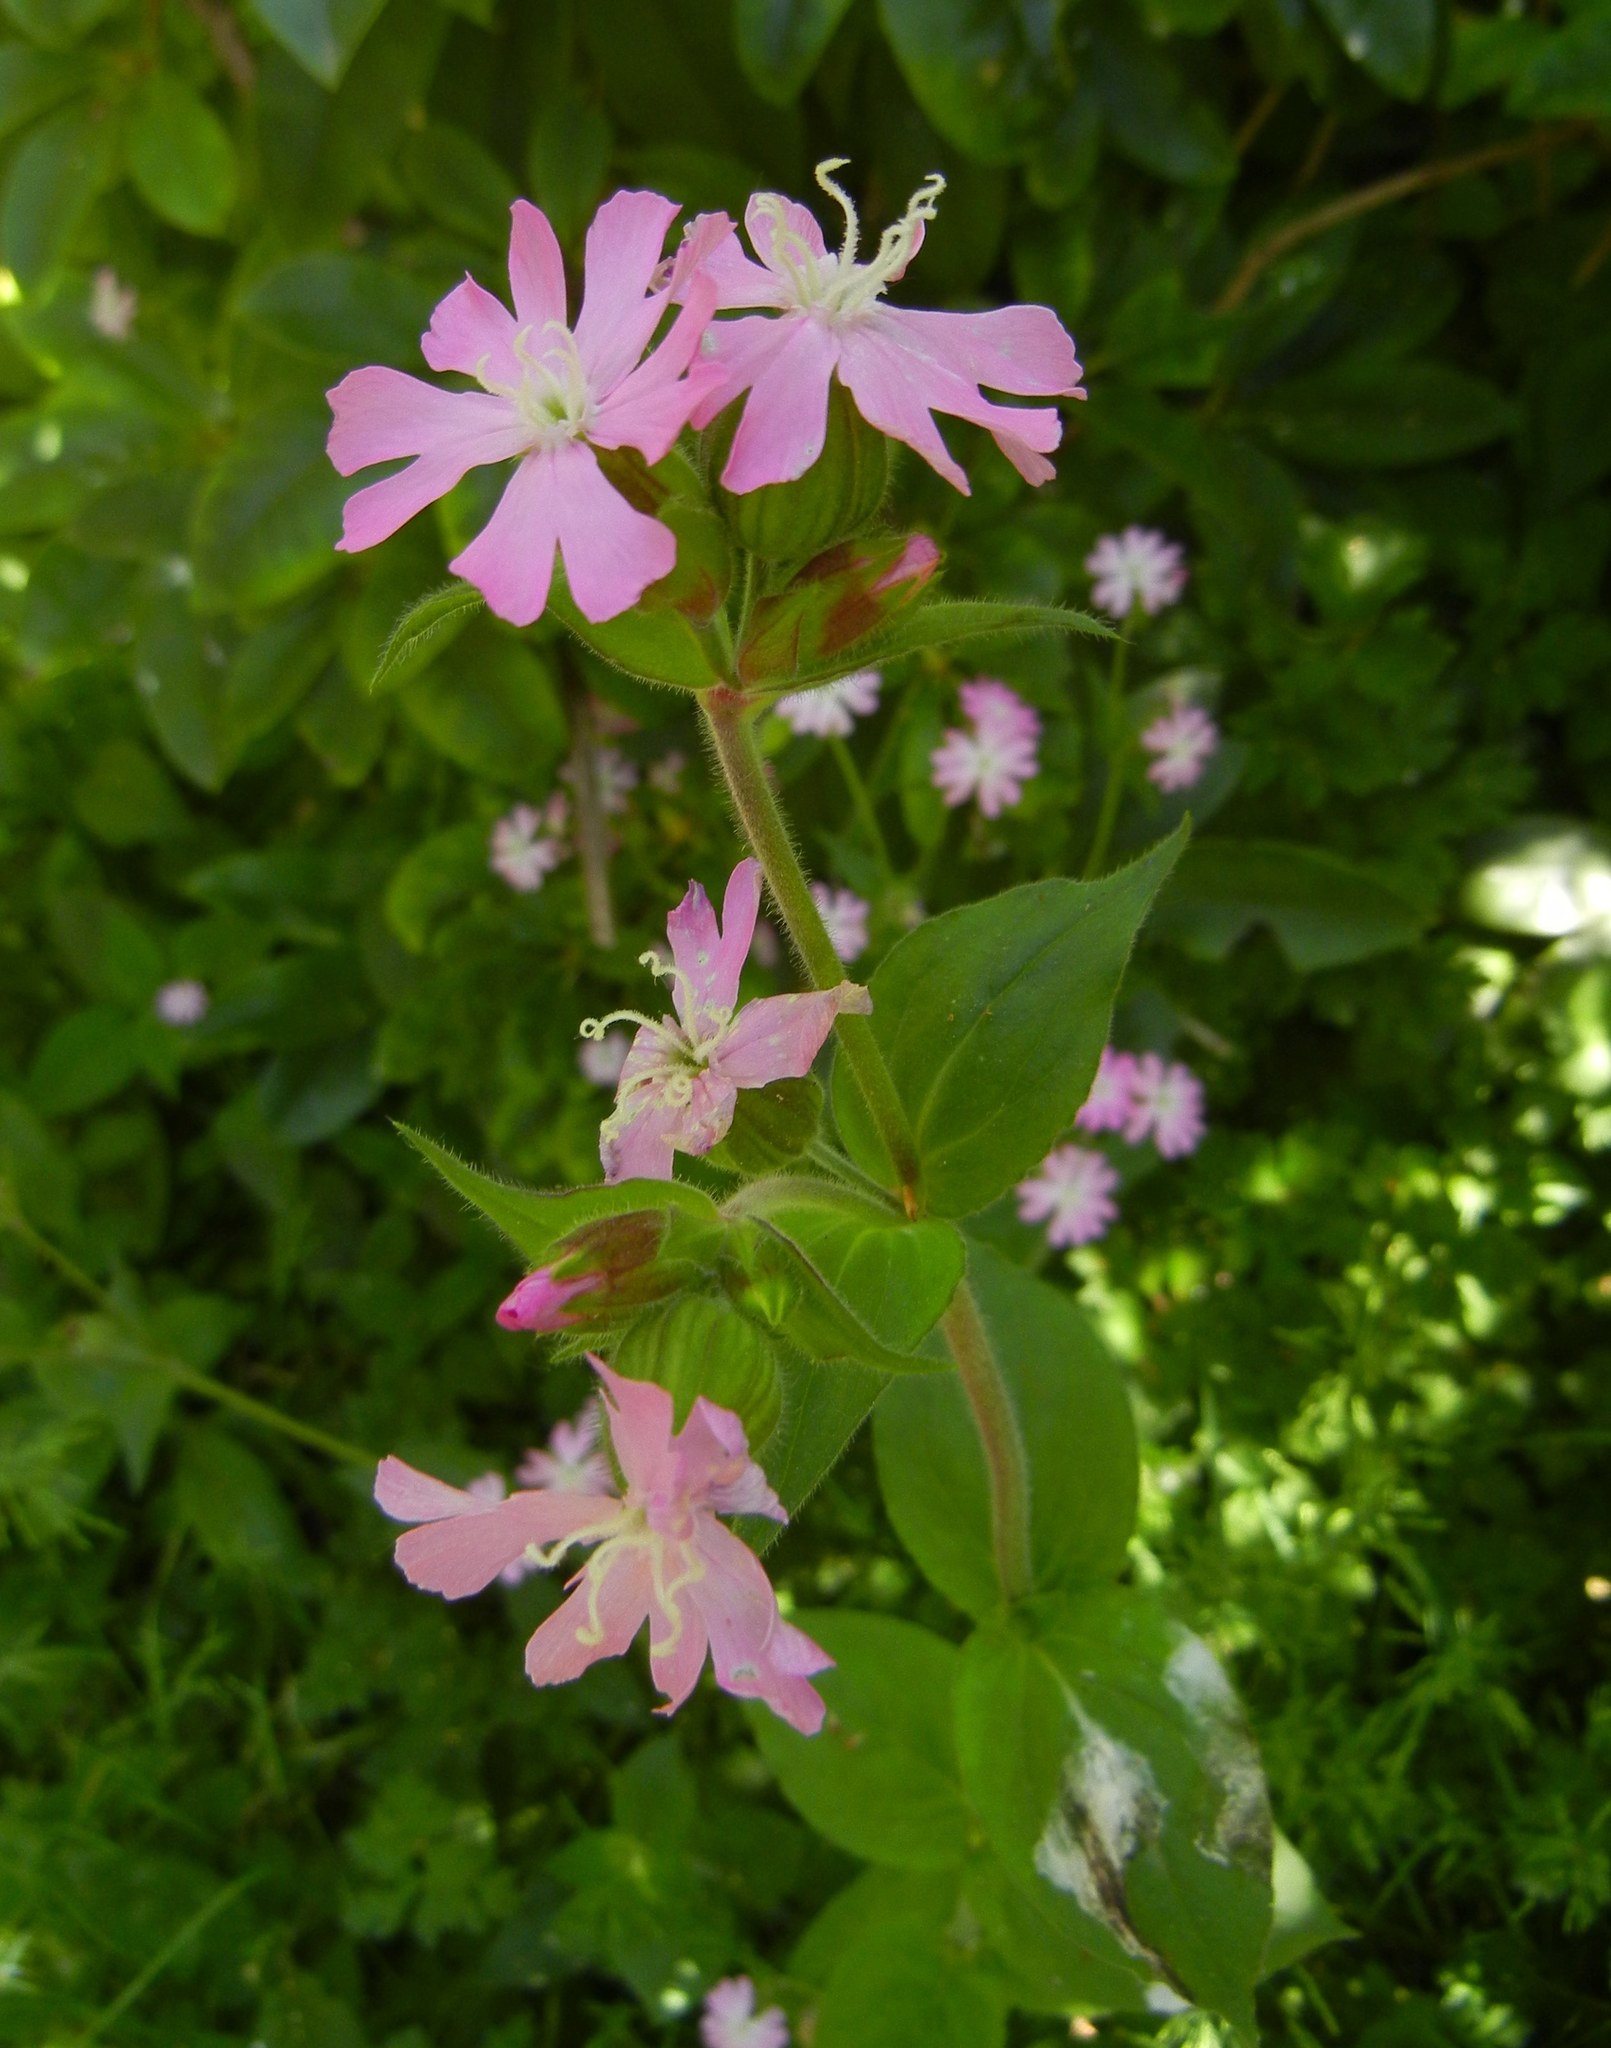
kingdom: Plantae
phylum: Tracheophyta
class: Magnoliopsida
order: Caryophyllales
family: Caryophyllaceae
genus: Silene
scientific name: Silene dioica
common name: Red campion
